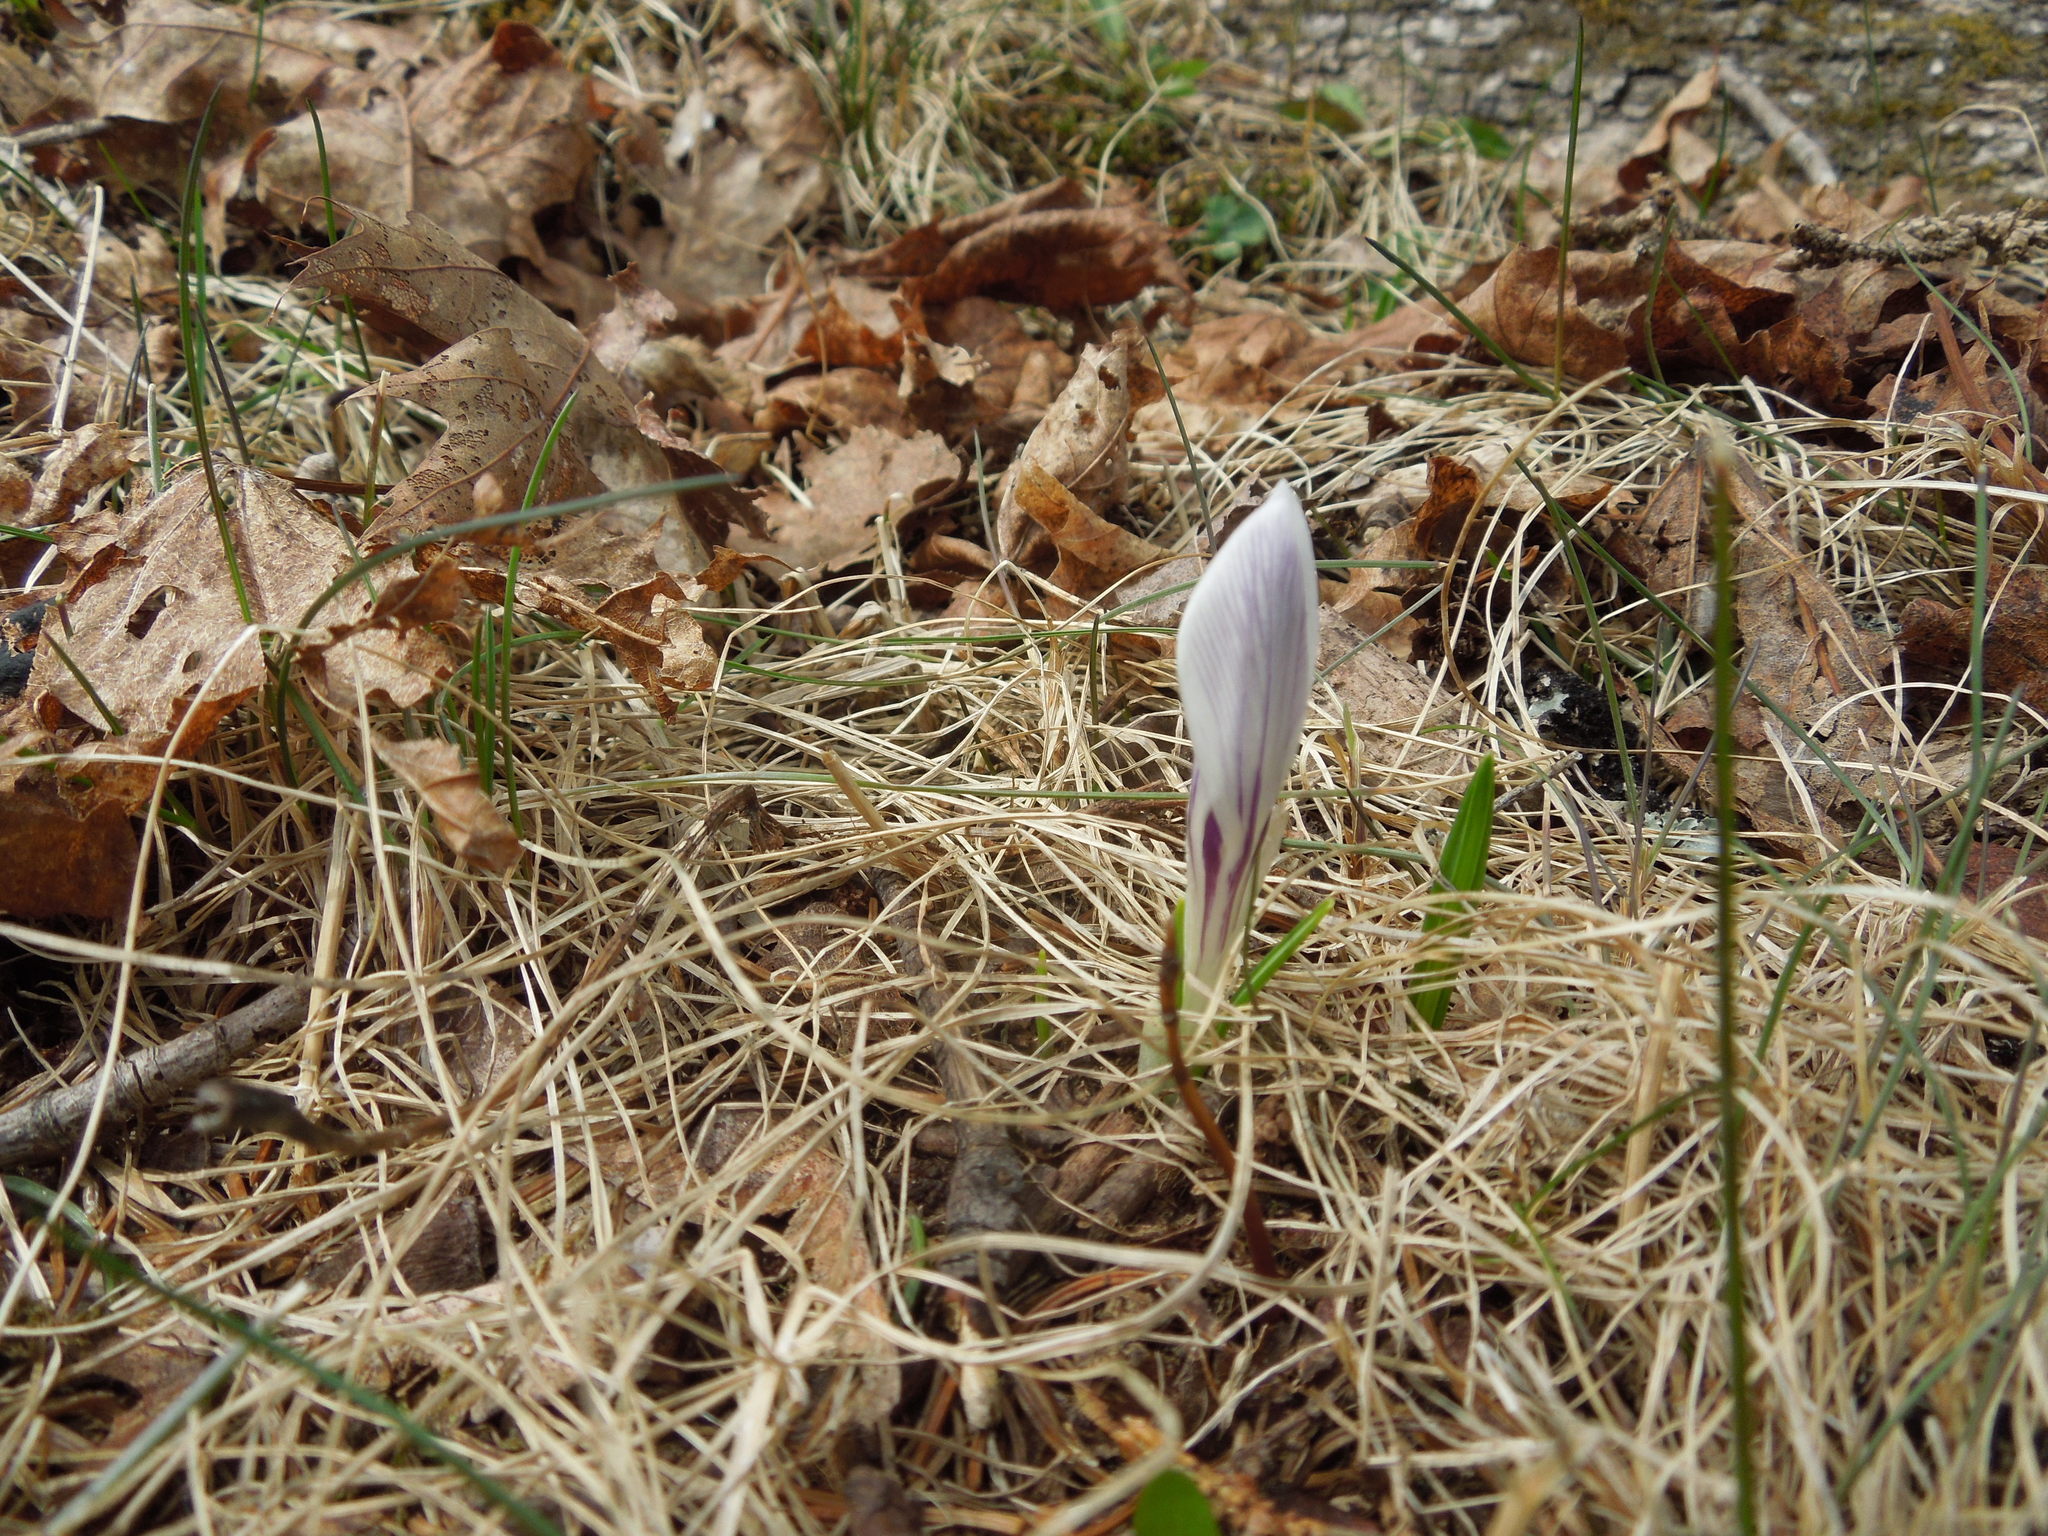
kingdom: Plantae
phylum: Tracheophyta
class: Liliopsida
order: Asparagales
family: Iridaceae
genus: Crocus
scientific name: Crocus
